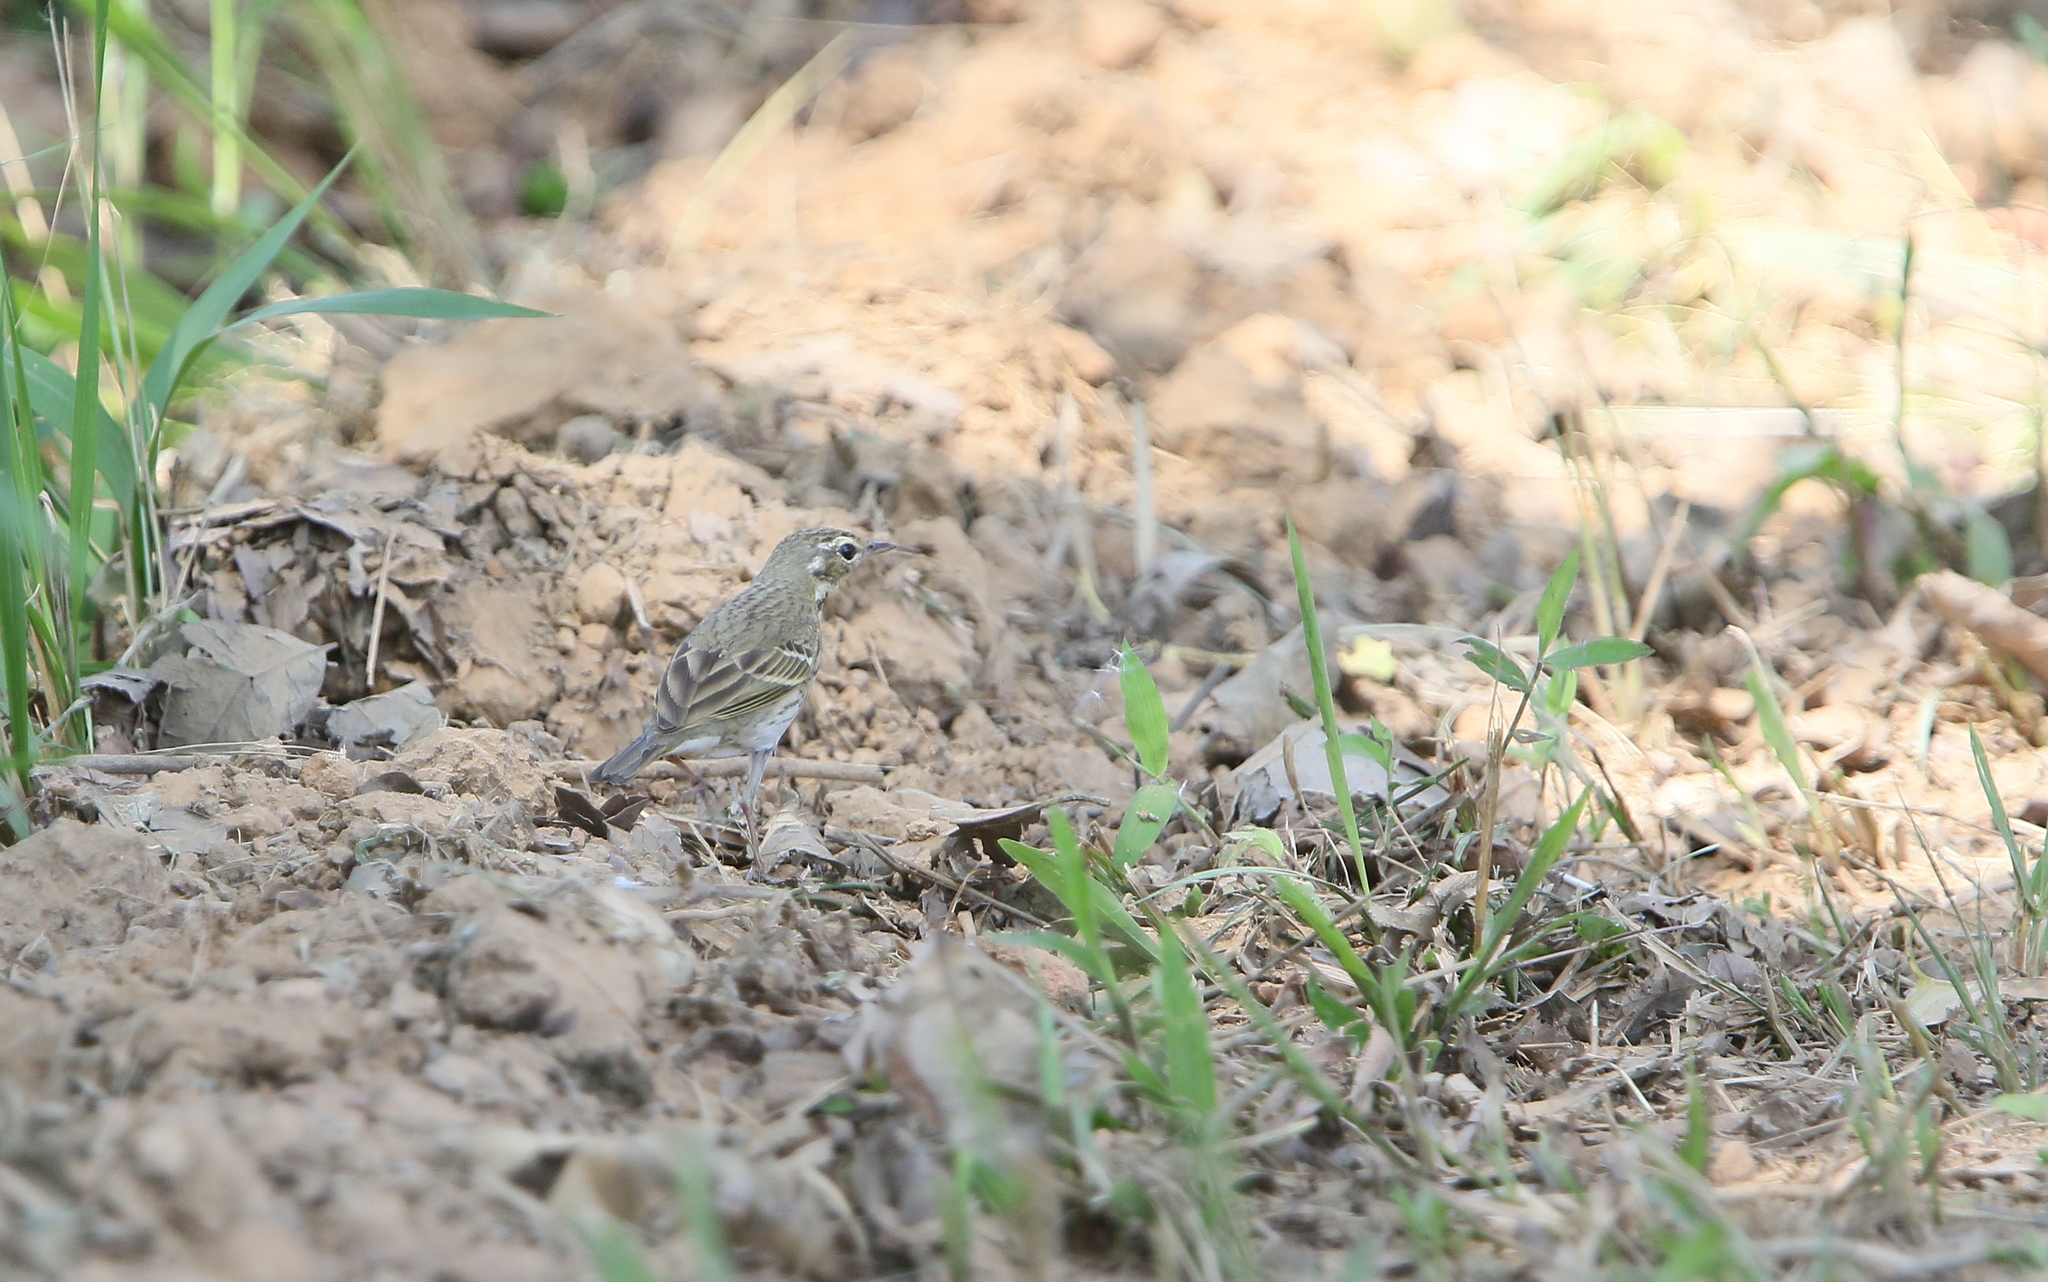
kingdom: Animalia
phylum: Chordata
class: Aves
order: Passeriformes
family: Motacillidae
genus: Anthus
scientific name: Anthus hodgsoni
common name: Olive-backed pipit
